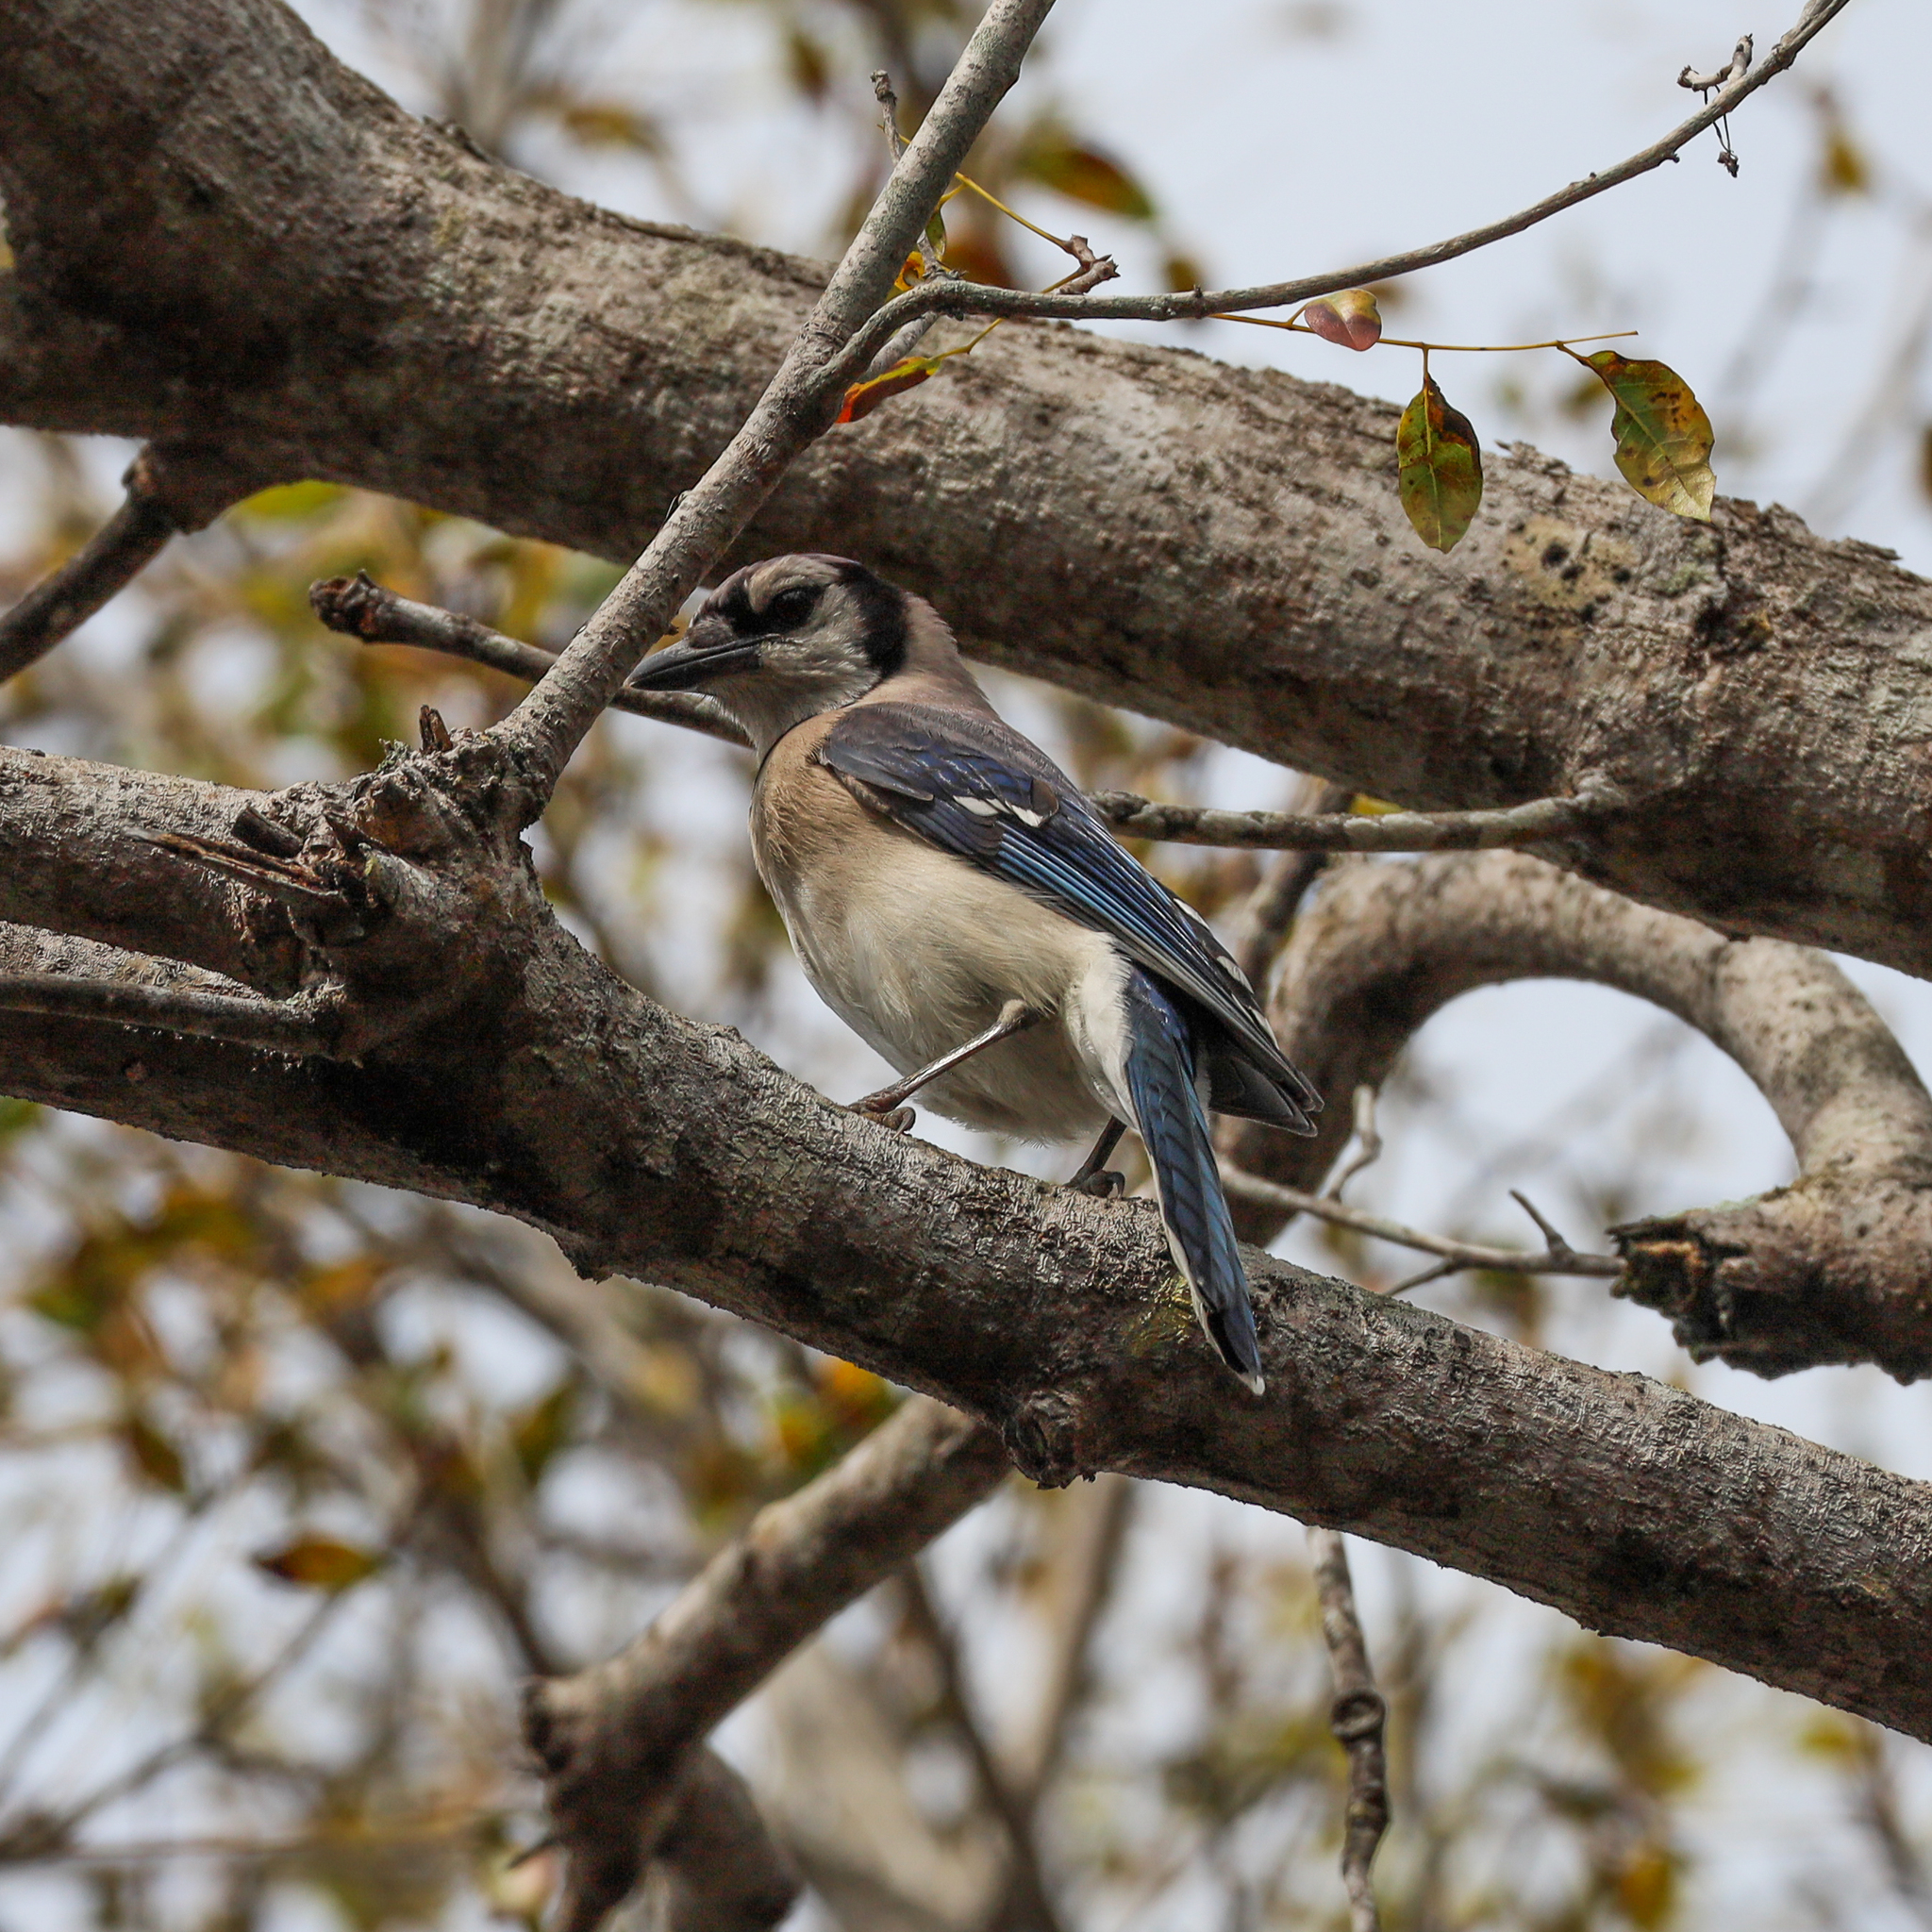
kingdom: Animalia
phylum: Chordata
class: Aves
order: Passeriformes
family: Corvidae
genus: Cyanocitta
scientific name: Cyanocitta cristata
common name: Blue jay
